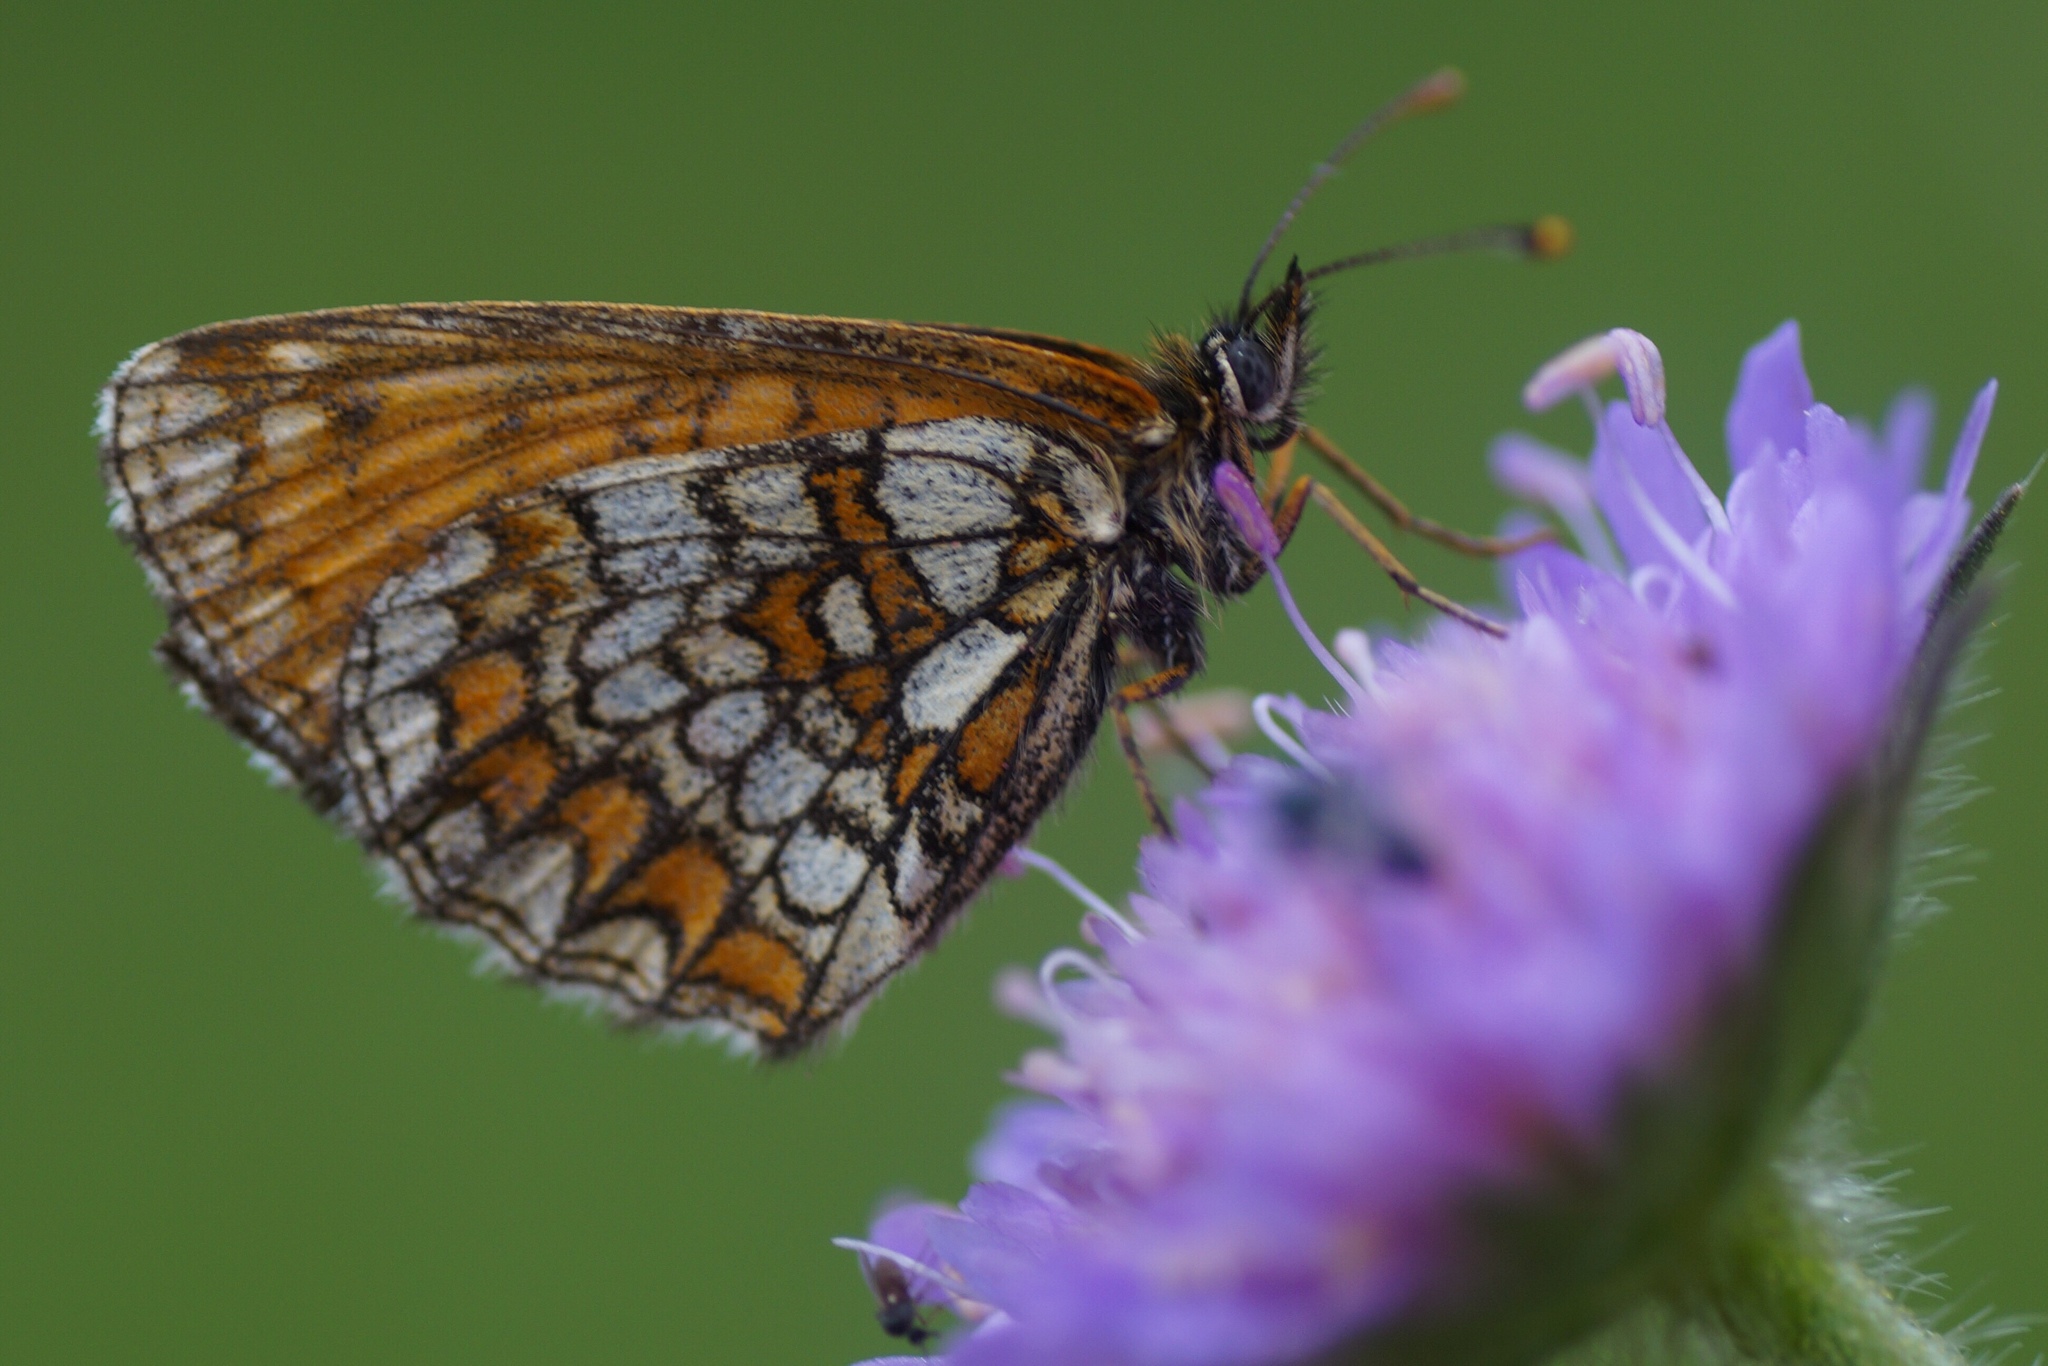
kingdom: Animalia
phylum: Arthropoda
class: Insecta
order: Lepidoptera
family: Nymphalidae
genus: Melitaea
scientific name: Melitaea athalia
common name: Heath fritillary
